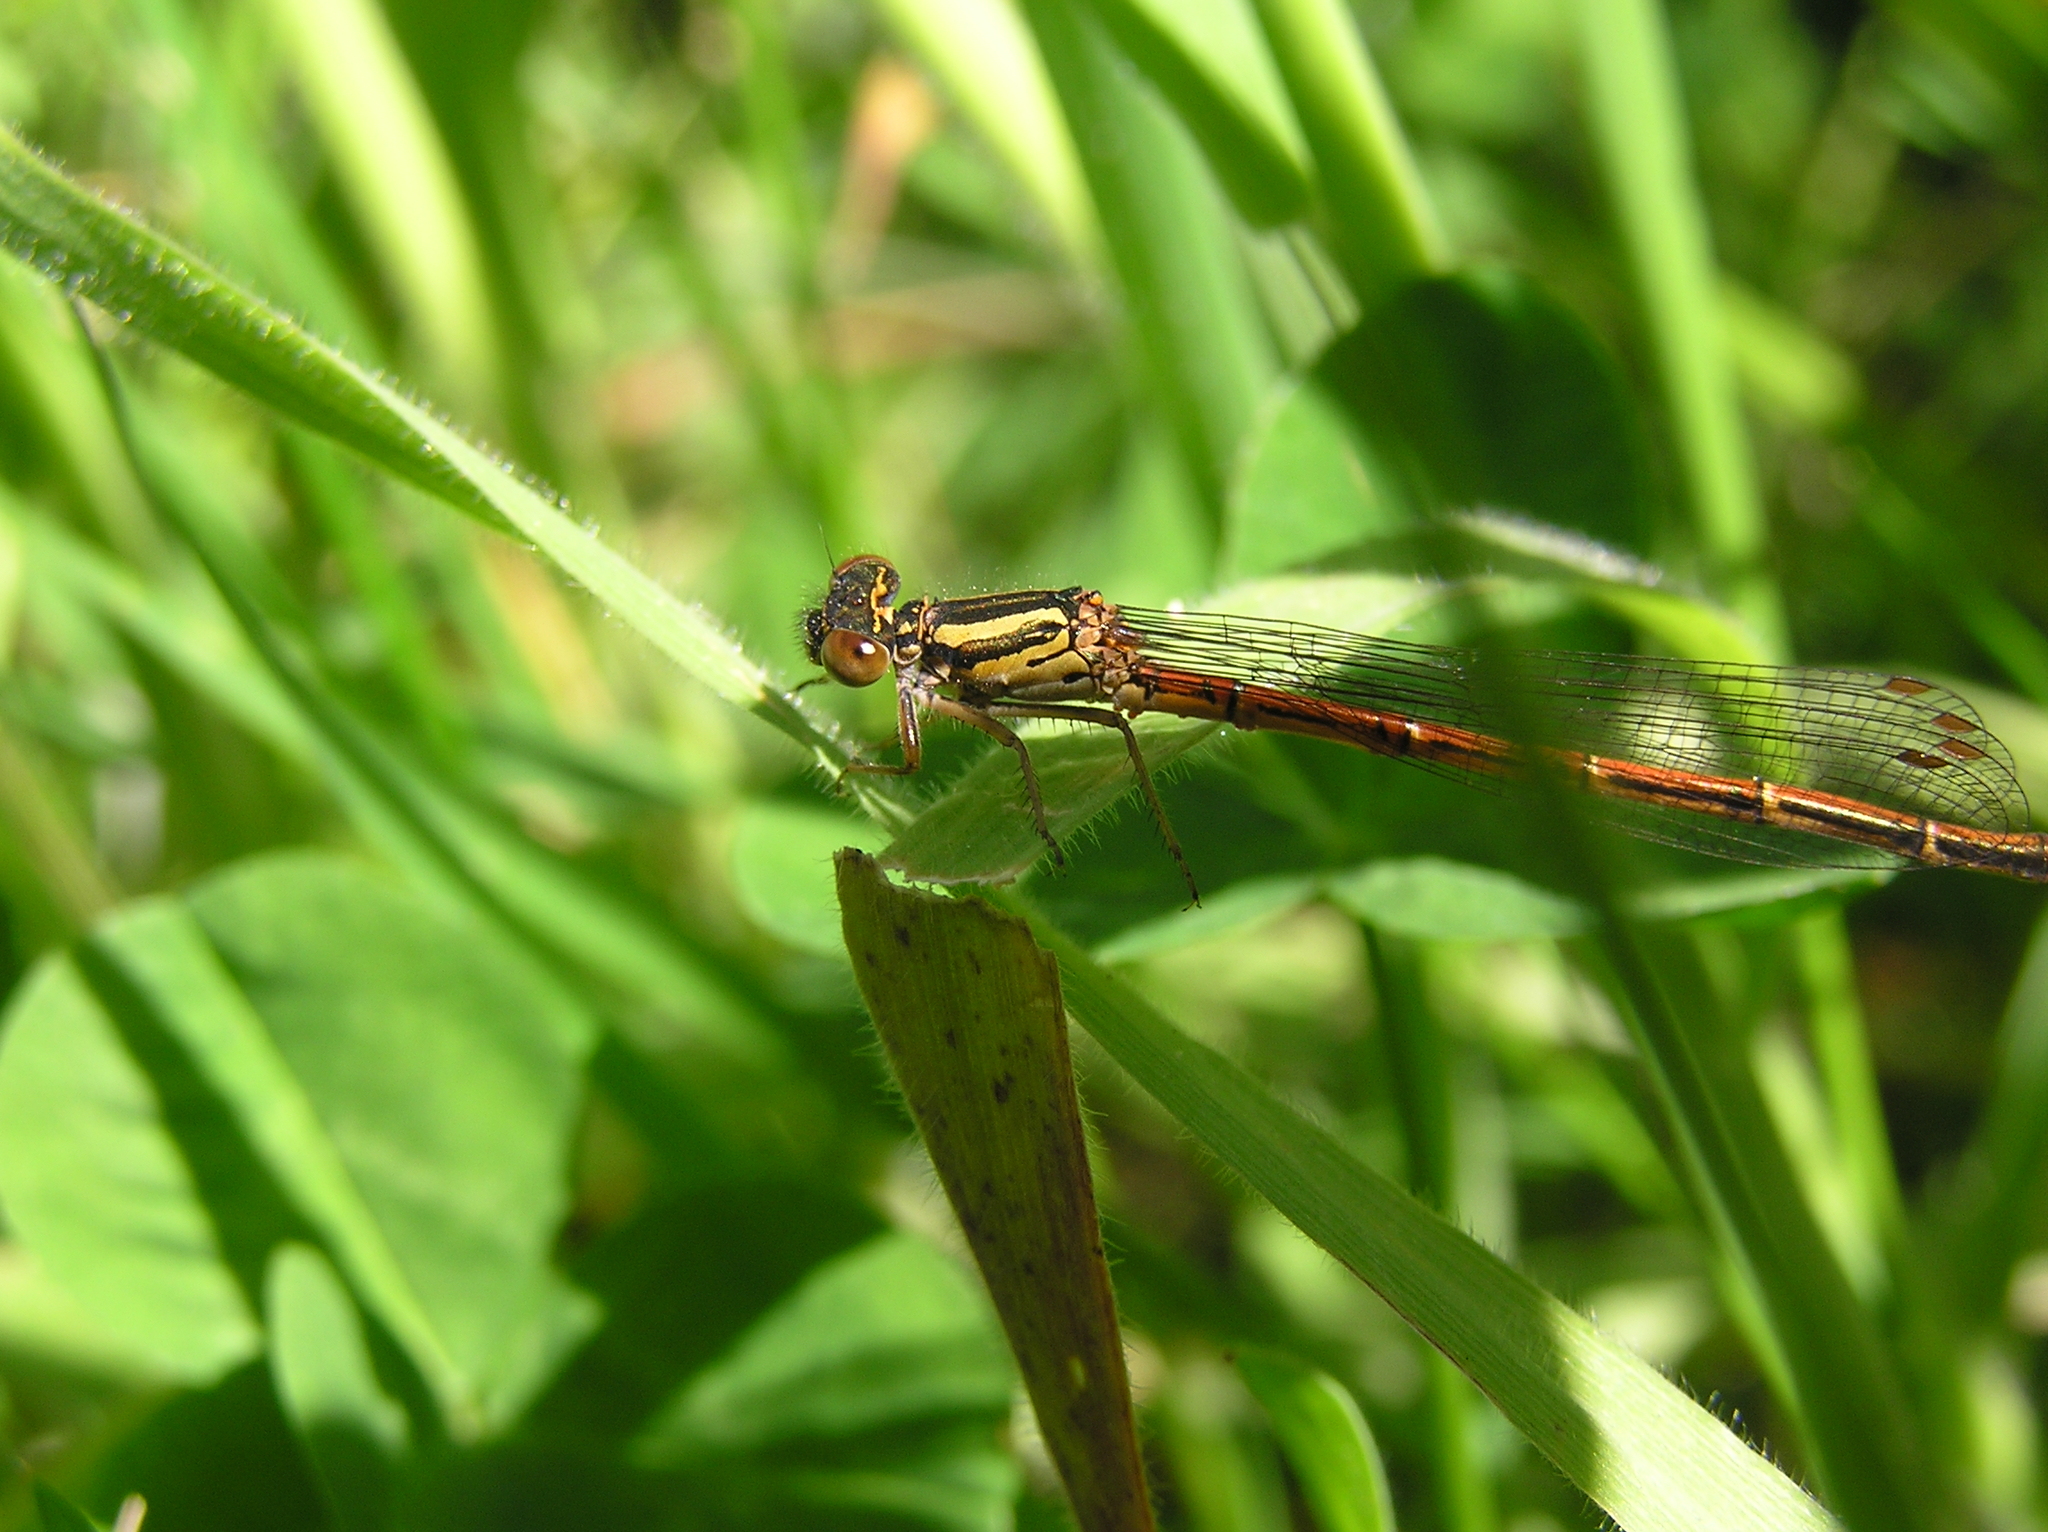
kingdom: Animalia
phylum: Arthropoda
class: Insecta
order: Odonata
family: Coenagrionidae
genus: Xanthocnemis
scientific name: Xanthocnemis zealandica
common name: Common redcoat damselfly
